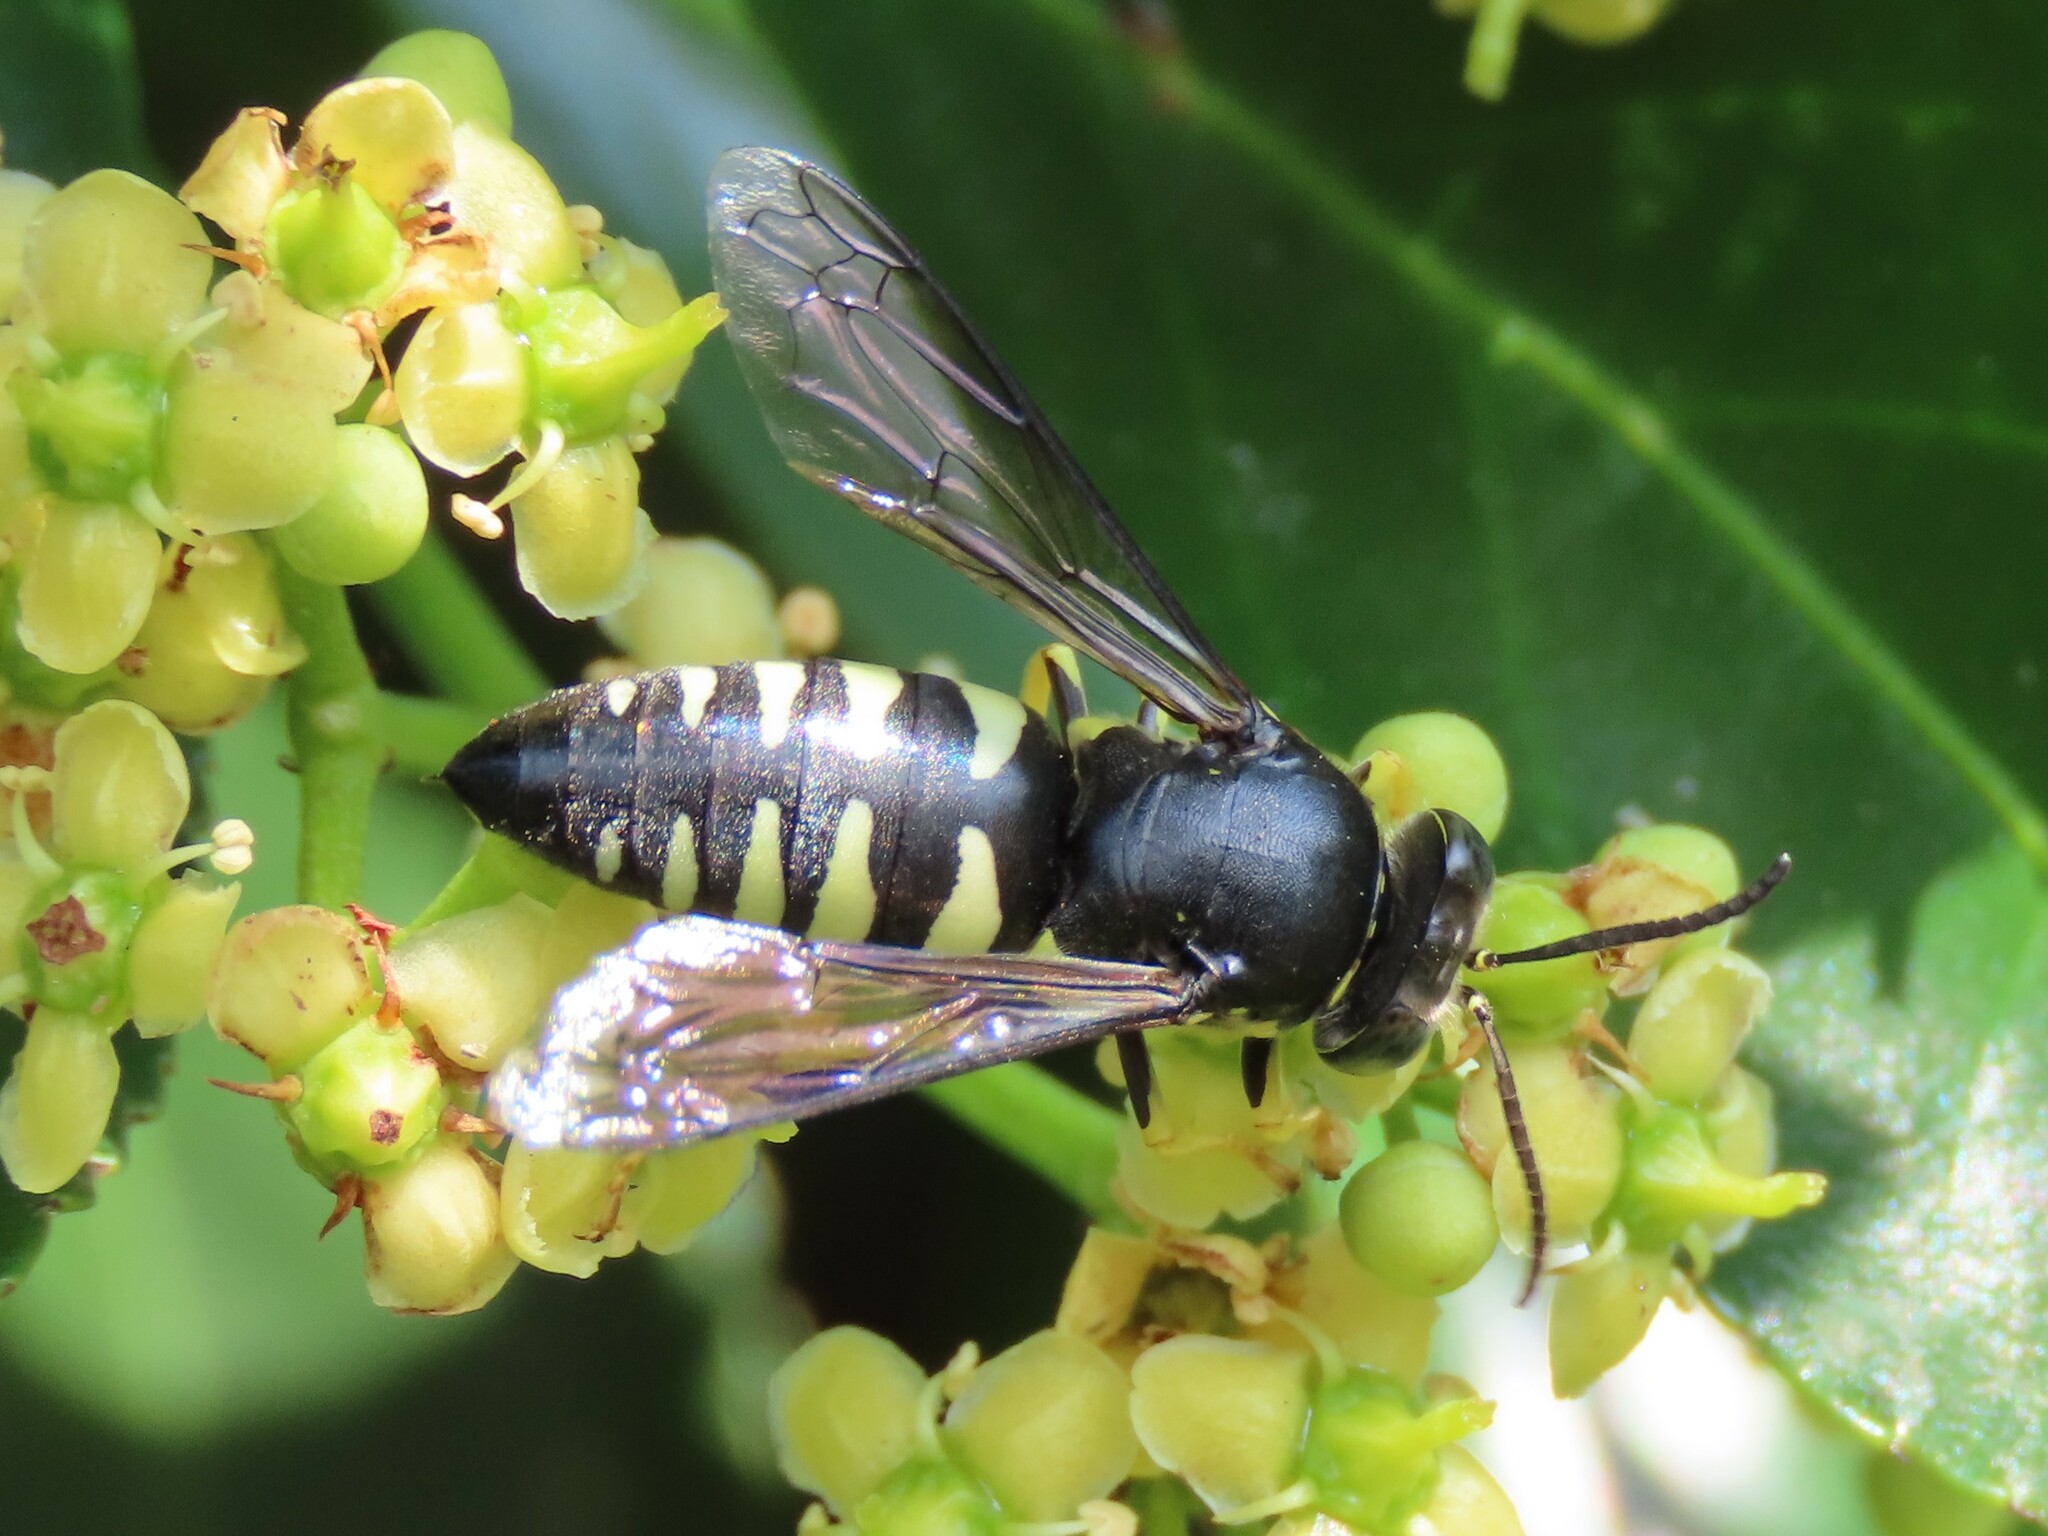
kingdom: Animalia
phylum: Arthropoda
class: Insecta
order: Hymenoptera
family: Crabronidae
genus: Bicyrtes
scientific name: Bicyrtes quadrifasciatus
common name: Four-banded stink bug hunter wasp
